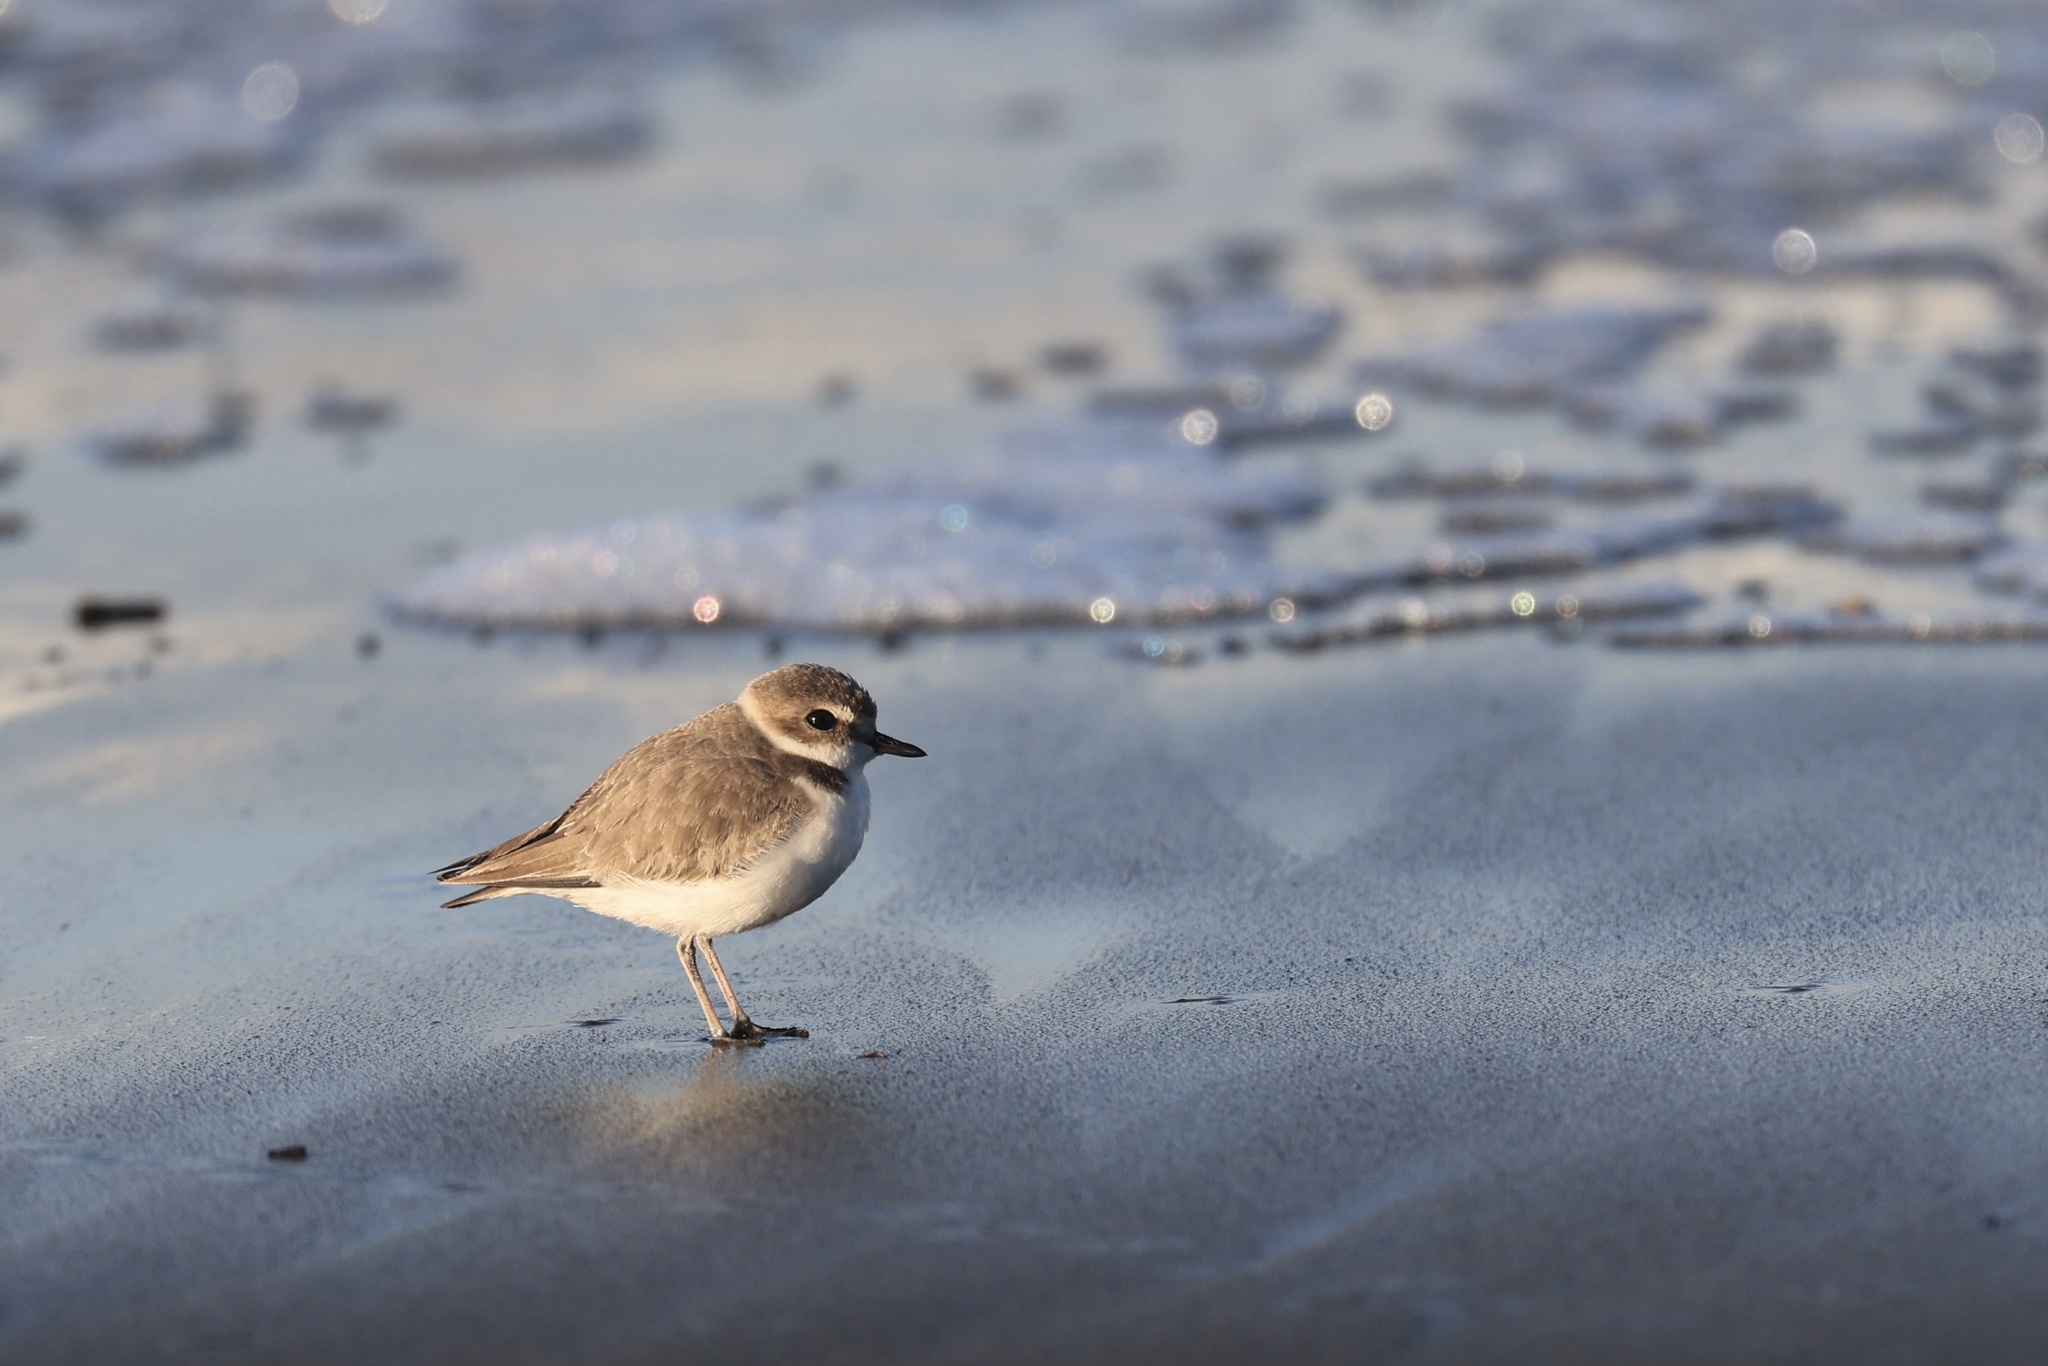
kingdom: Animalia
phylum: Chordata
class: Aves
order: Charadriiformes
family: Charadriidae
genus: Anarhynchus
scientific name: Anarhynchus
